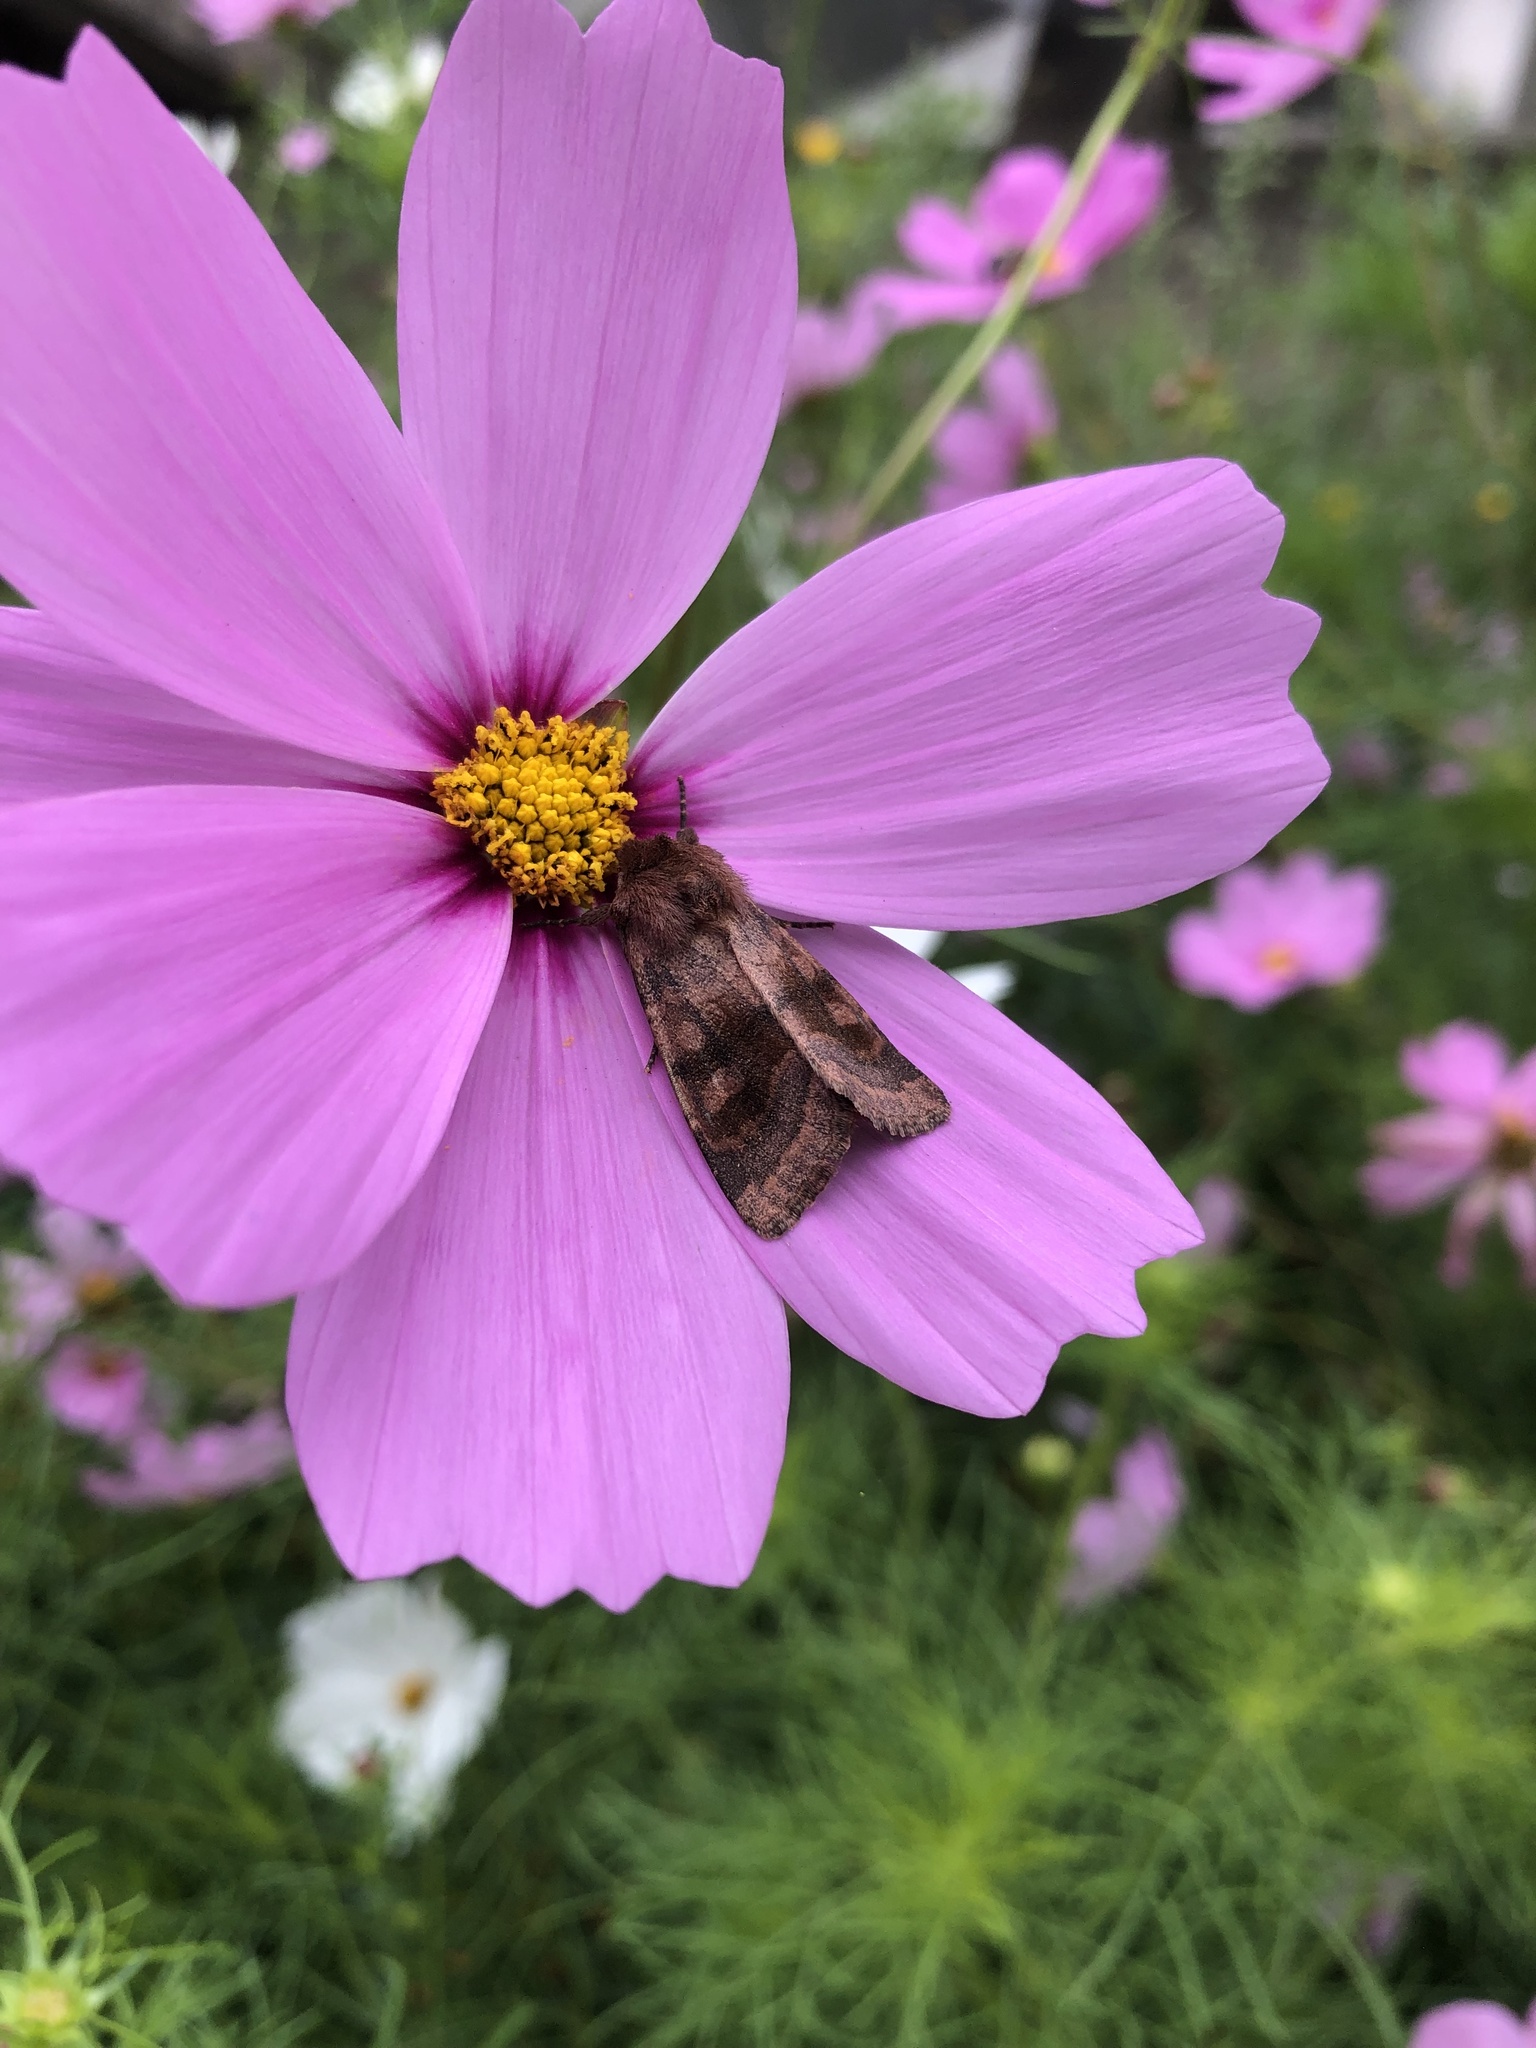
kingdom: Animalia
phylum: Arthropoda
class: Insecta
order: Lepidoptera
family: Noctuidae
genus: Nephelodes
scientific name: Nephelodes minians
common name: Bronzed cutworm
